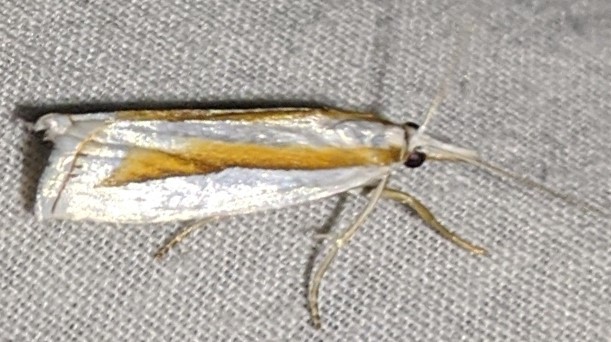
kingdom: Animalia
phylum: Arthropoda
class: Insecta
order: Lepidoptera
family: Crambidae
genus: Crambus
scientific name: Crambus girardellus
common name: Girard's grass-veneer
